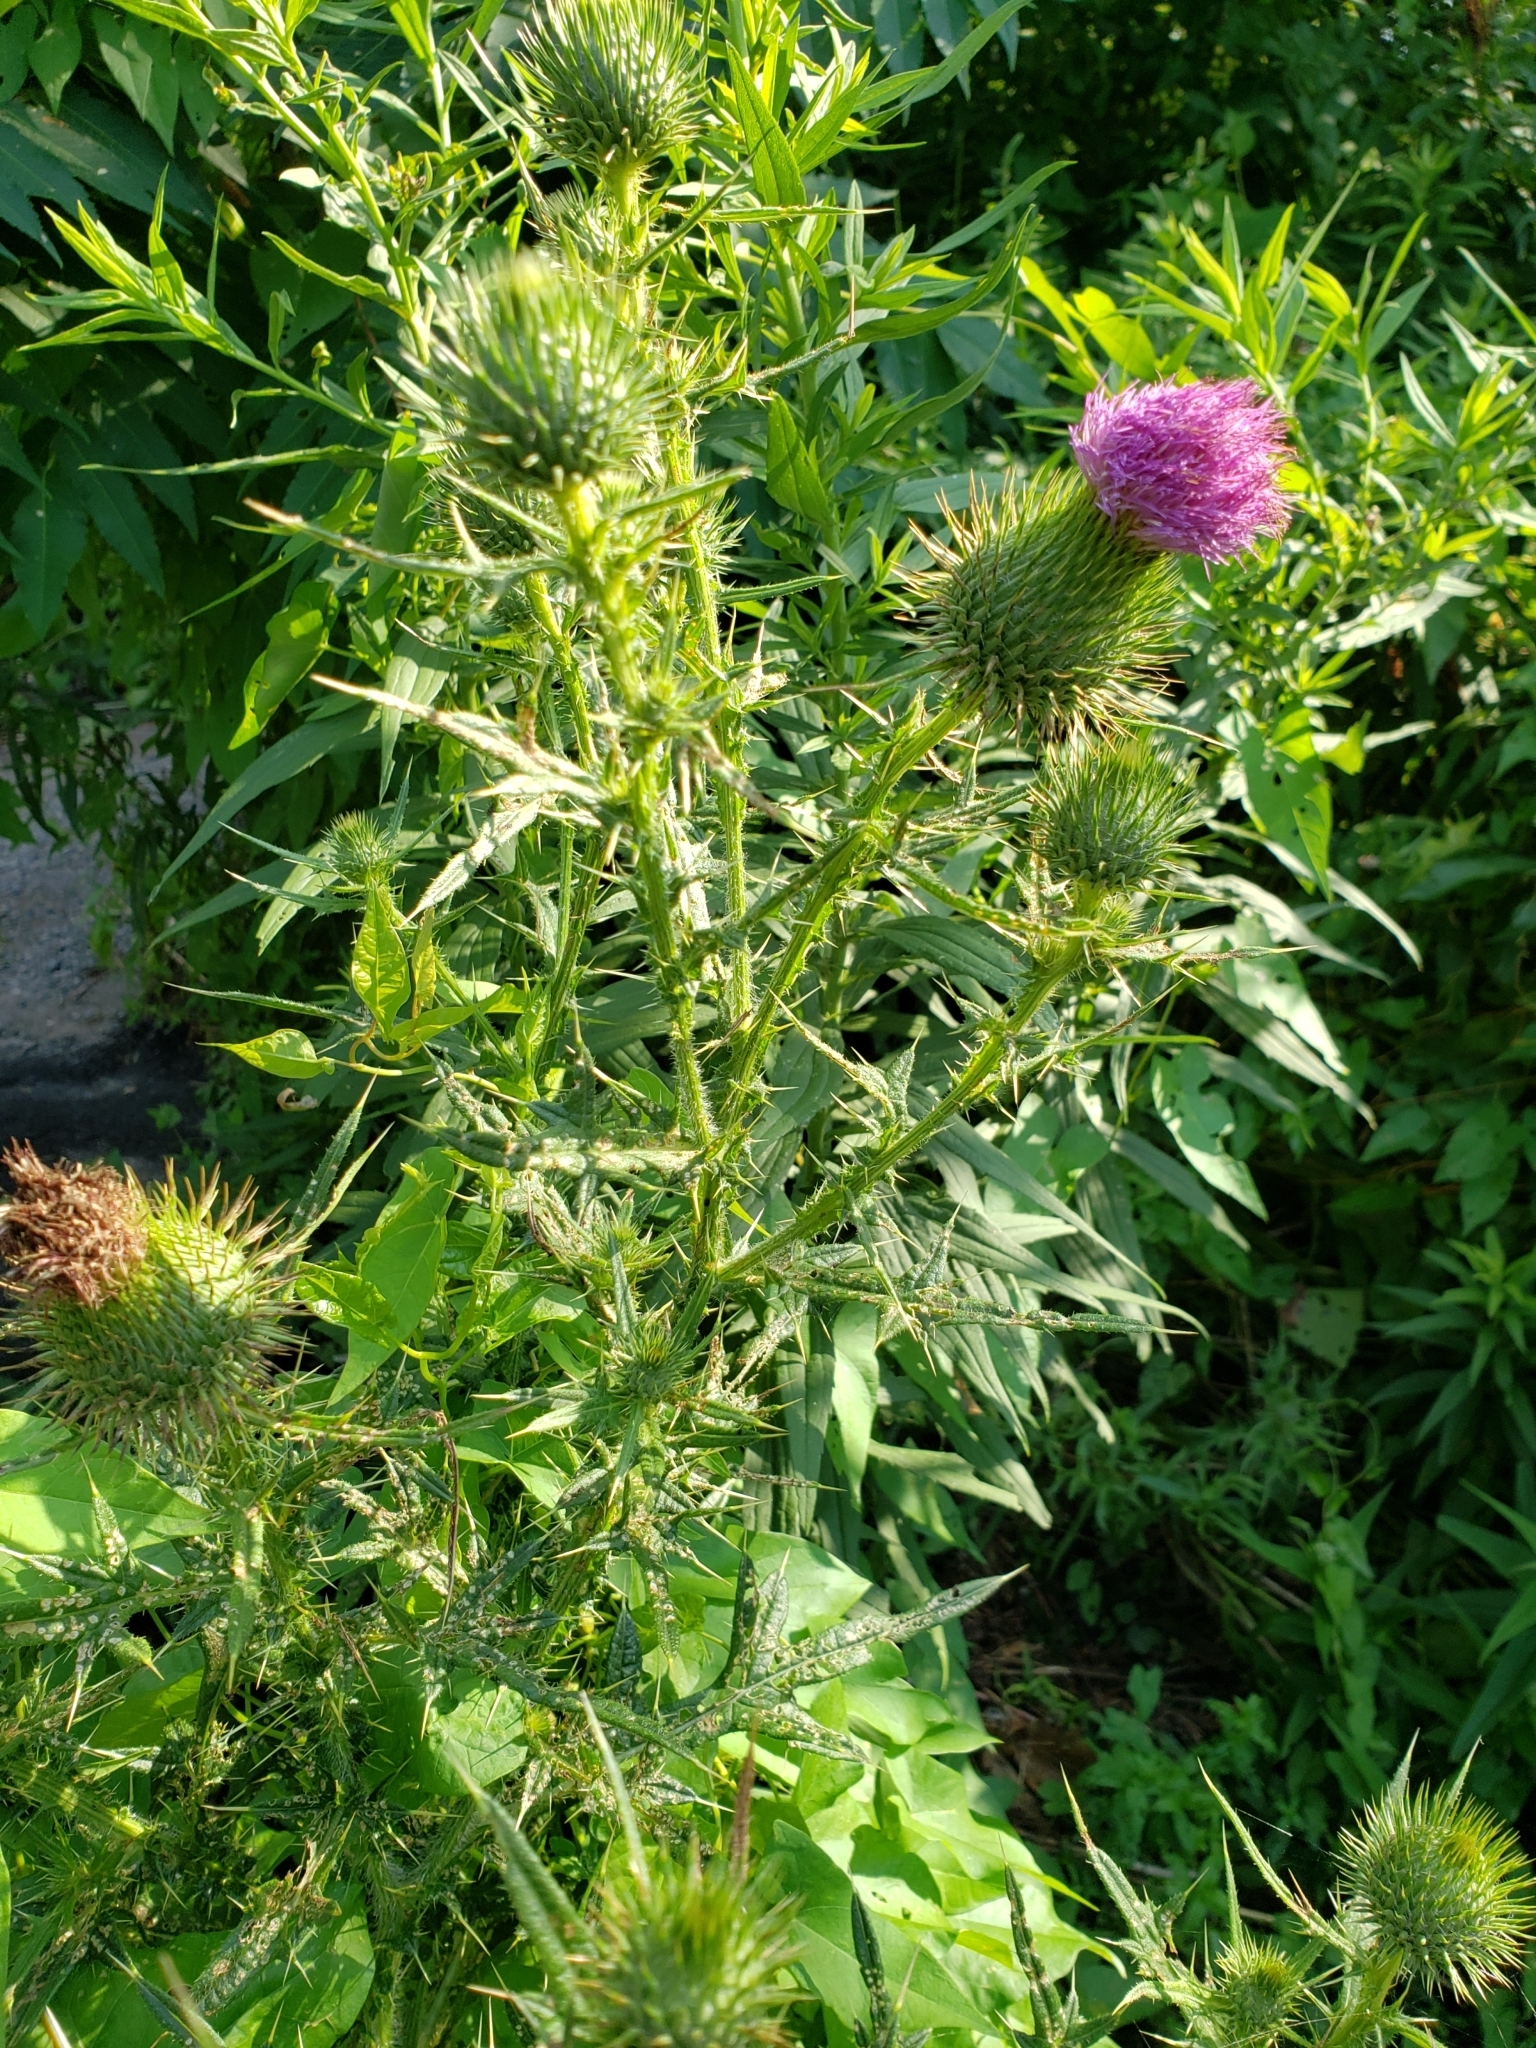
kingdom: Plantae
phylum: Tracheophyta
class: Magnoliopsida
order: Asterales
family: Asteraceae
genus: Cirsium
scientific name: Cirsium vulgare
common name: Bull thistle
